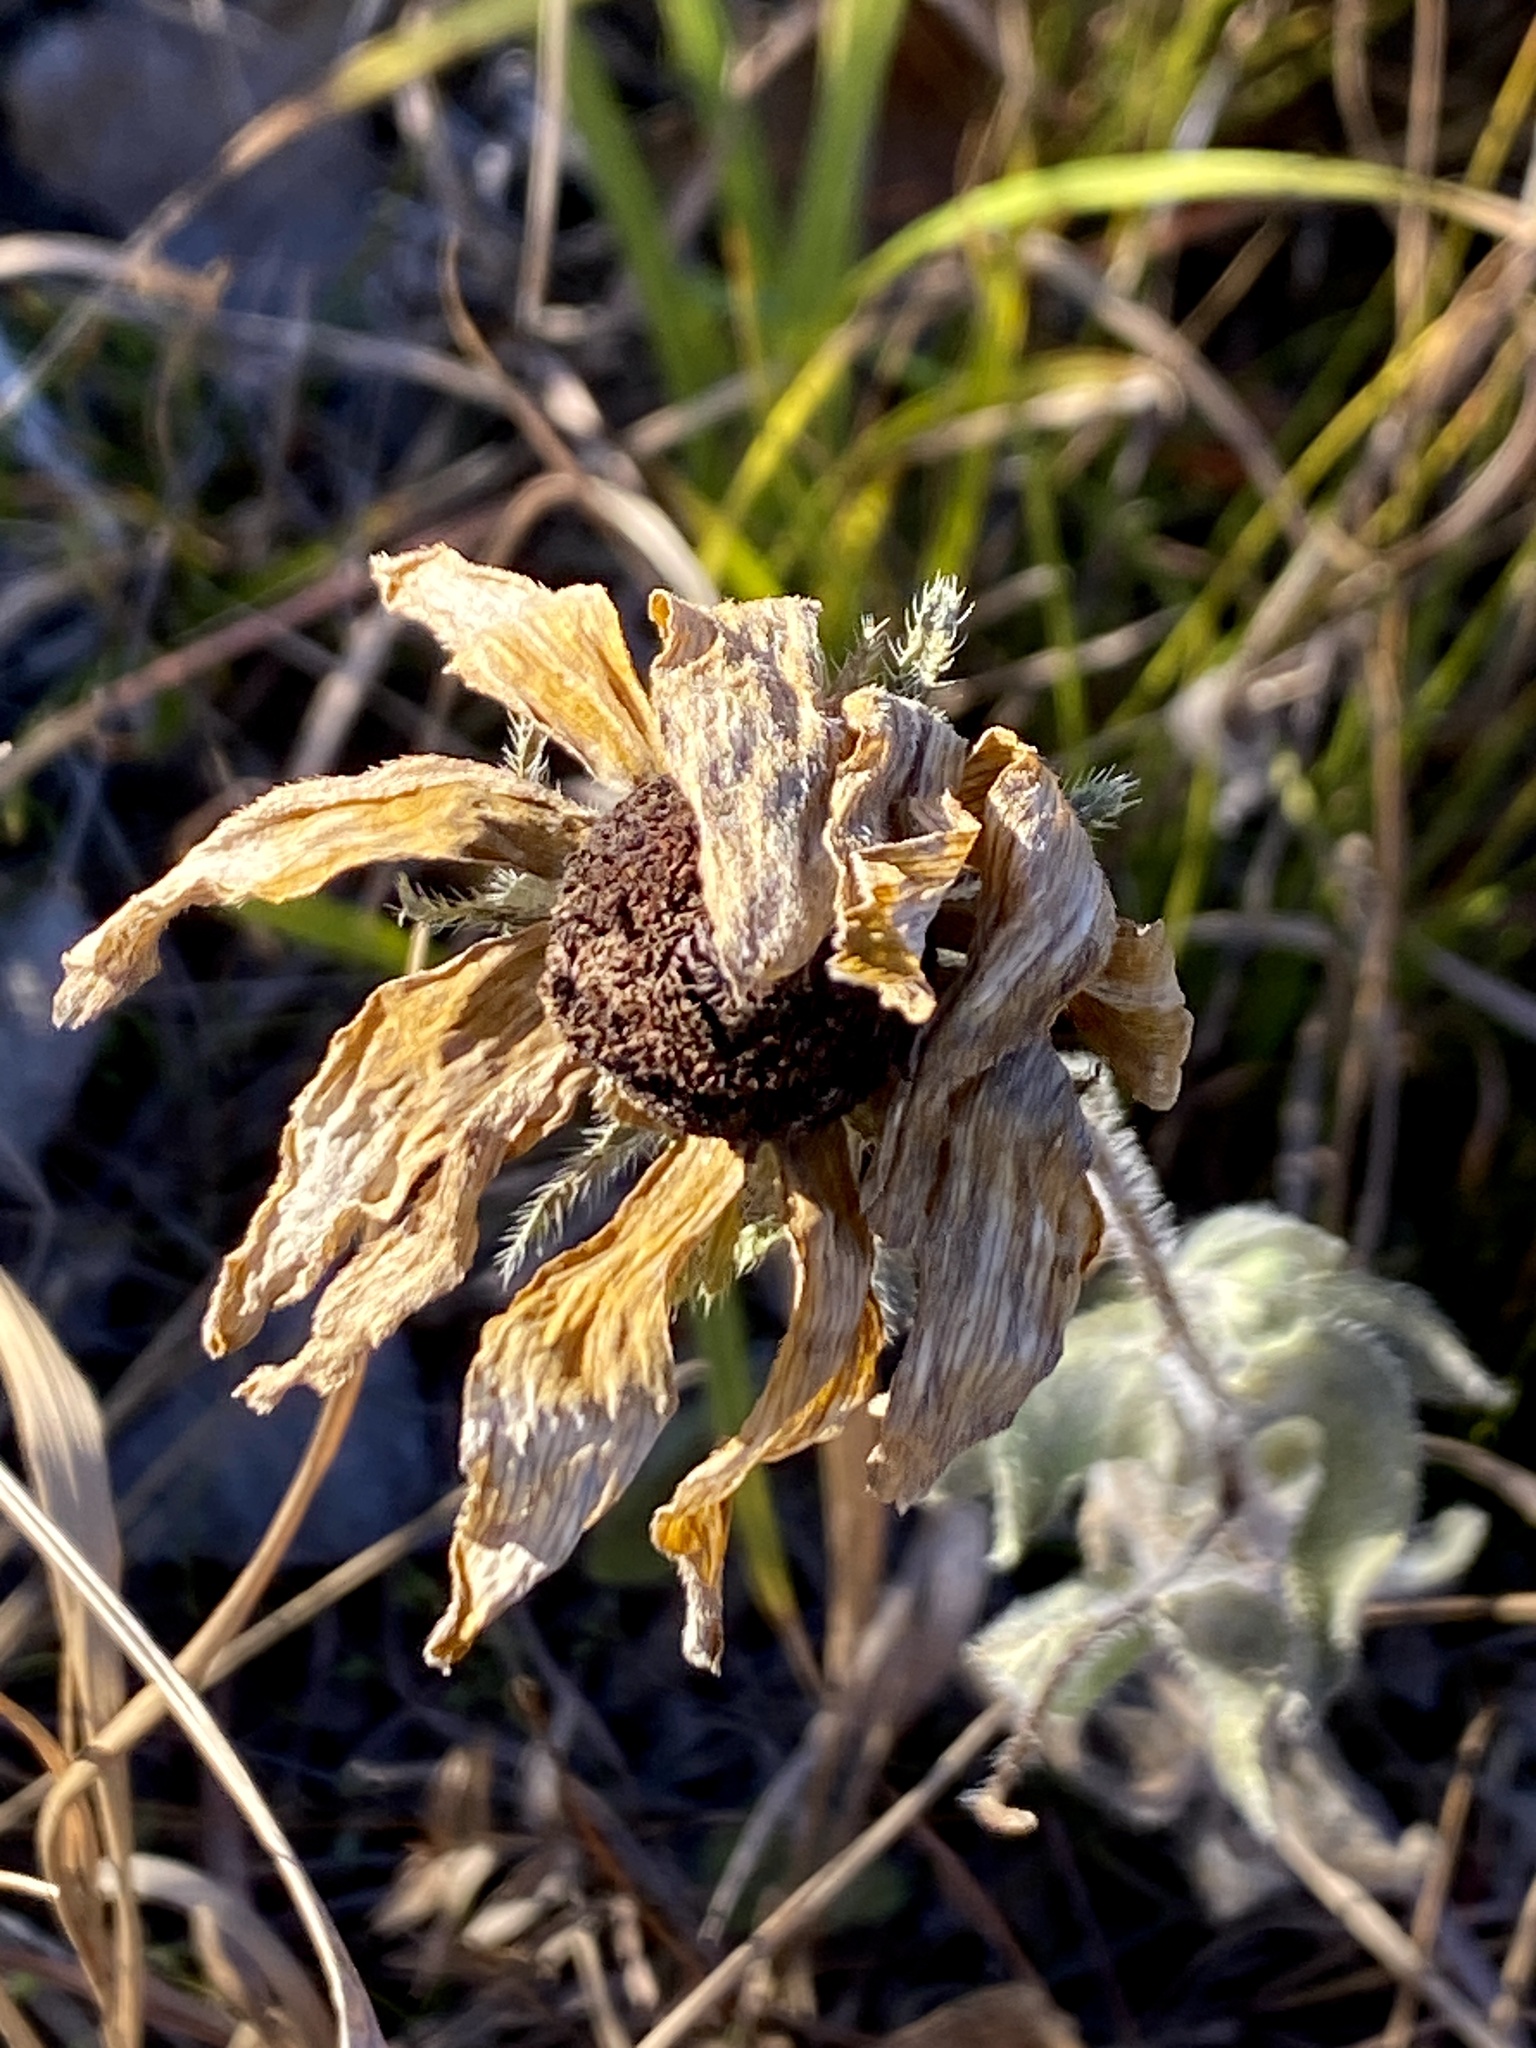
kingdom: Plantae
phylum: Tracheophyta
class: Magnoliopsida
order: Asterales
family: Asteraceae
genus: Rudbeckia
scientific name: Rudbeckia hirta
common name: Black-eyed-susan
